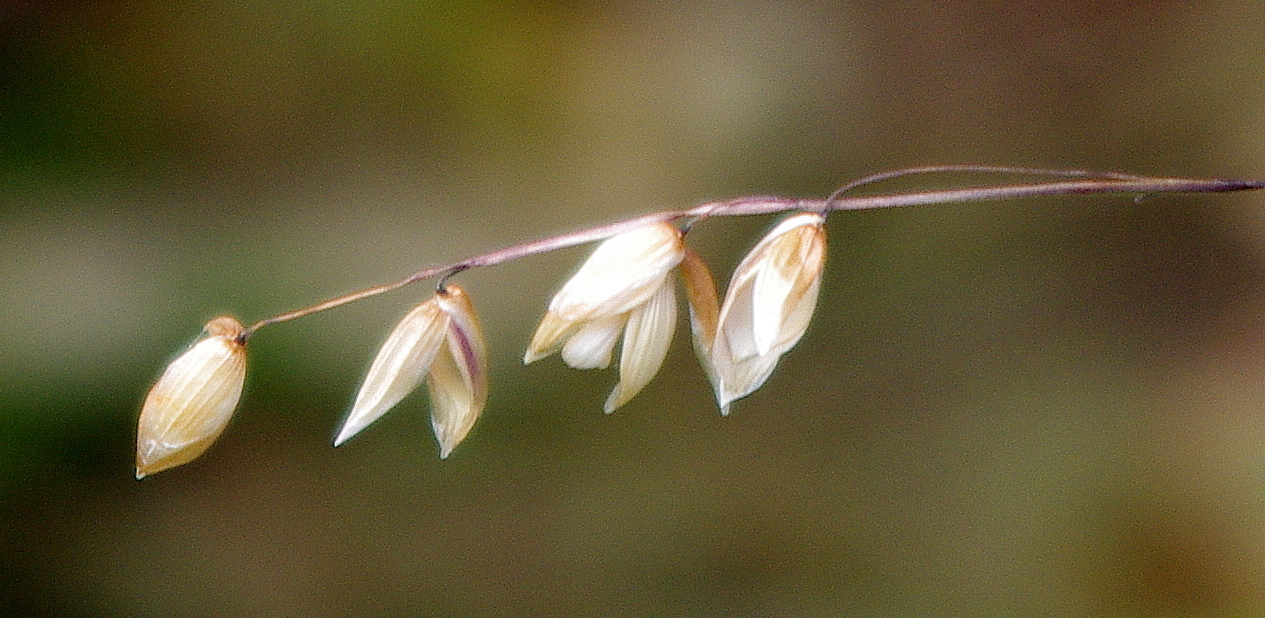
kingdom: Plantae
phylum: Tracheophyta
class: Liliopsida
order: Poales
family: Poaceae
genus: Melica
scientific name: Melica nutans
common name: Mountain melick
